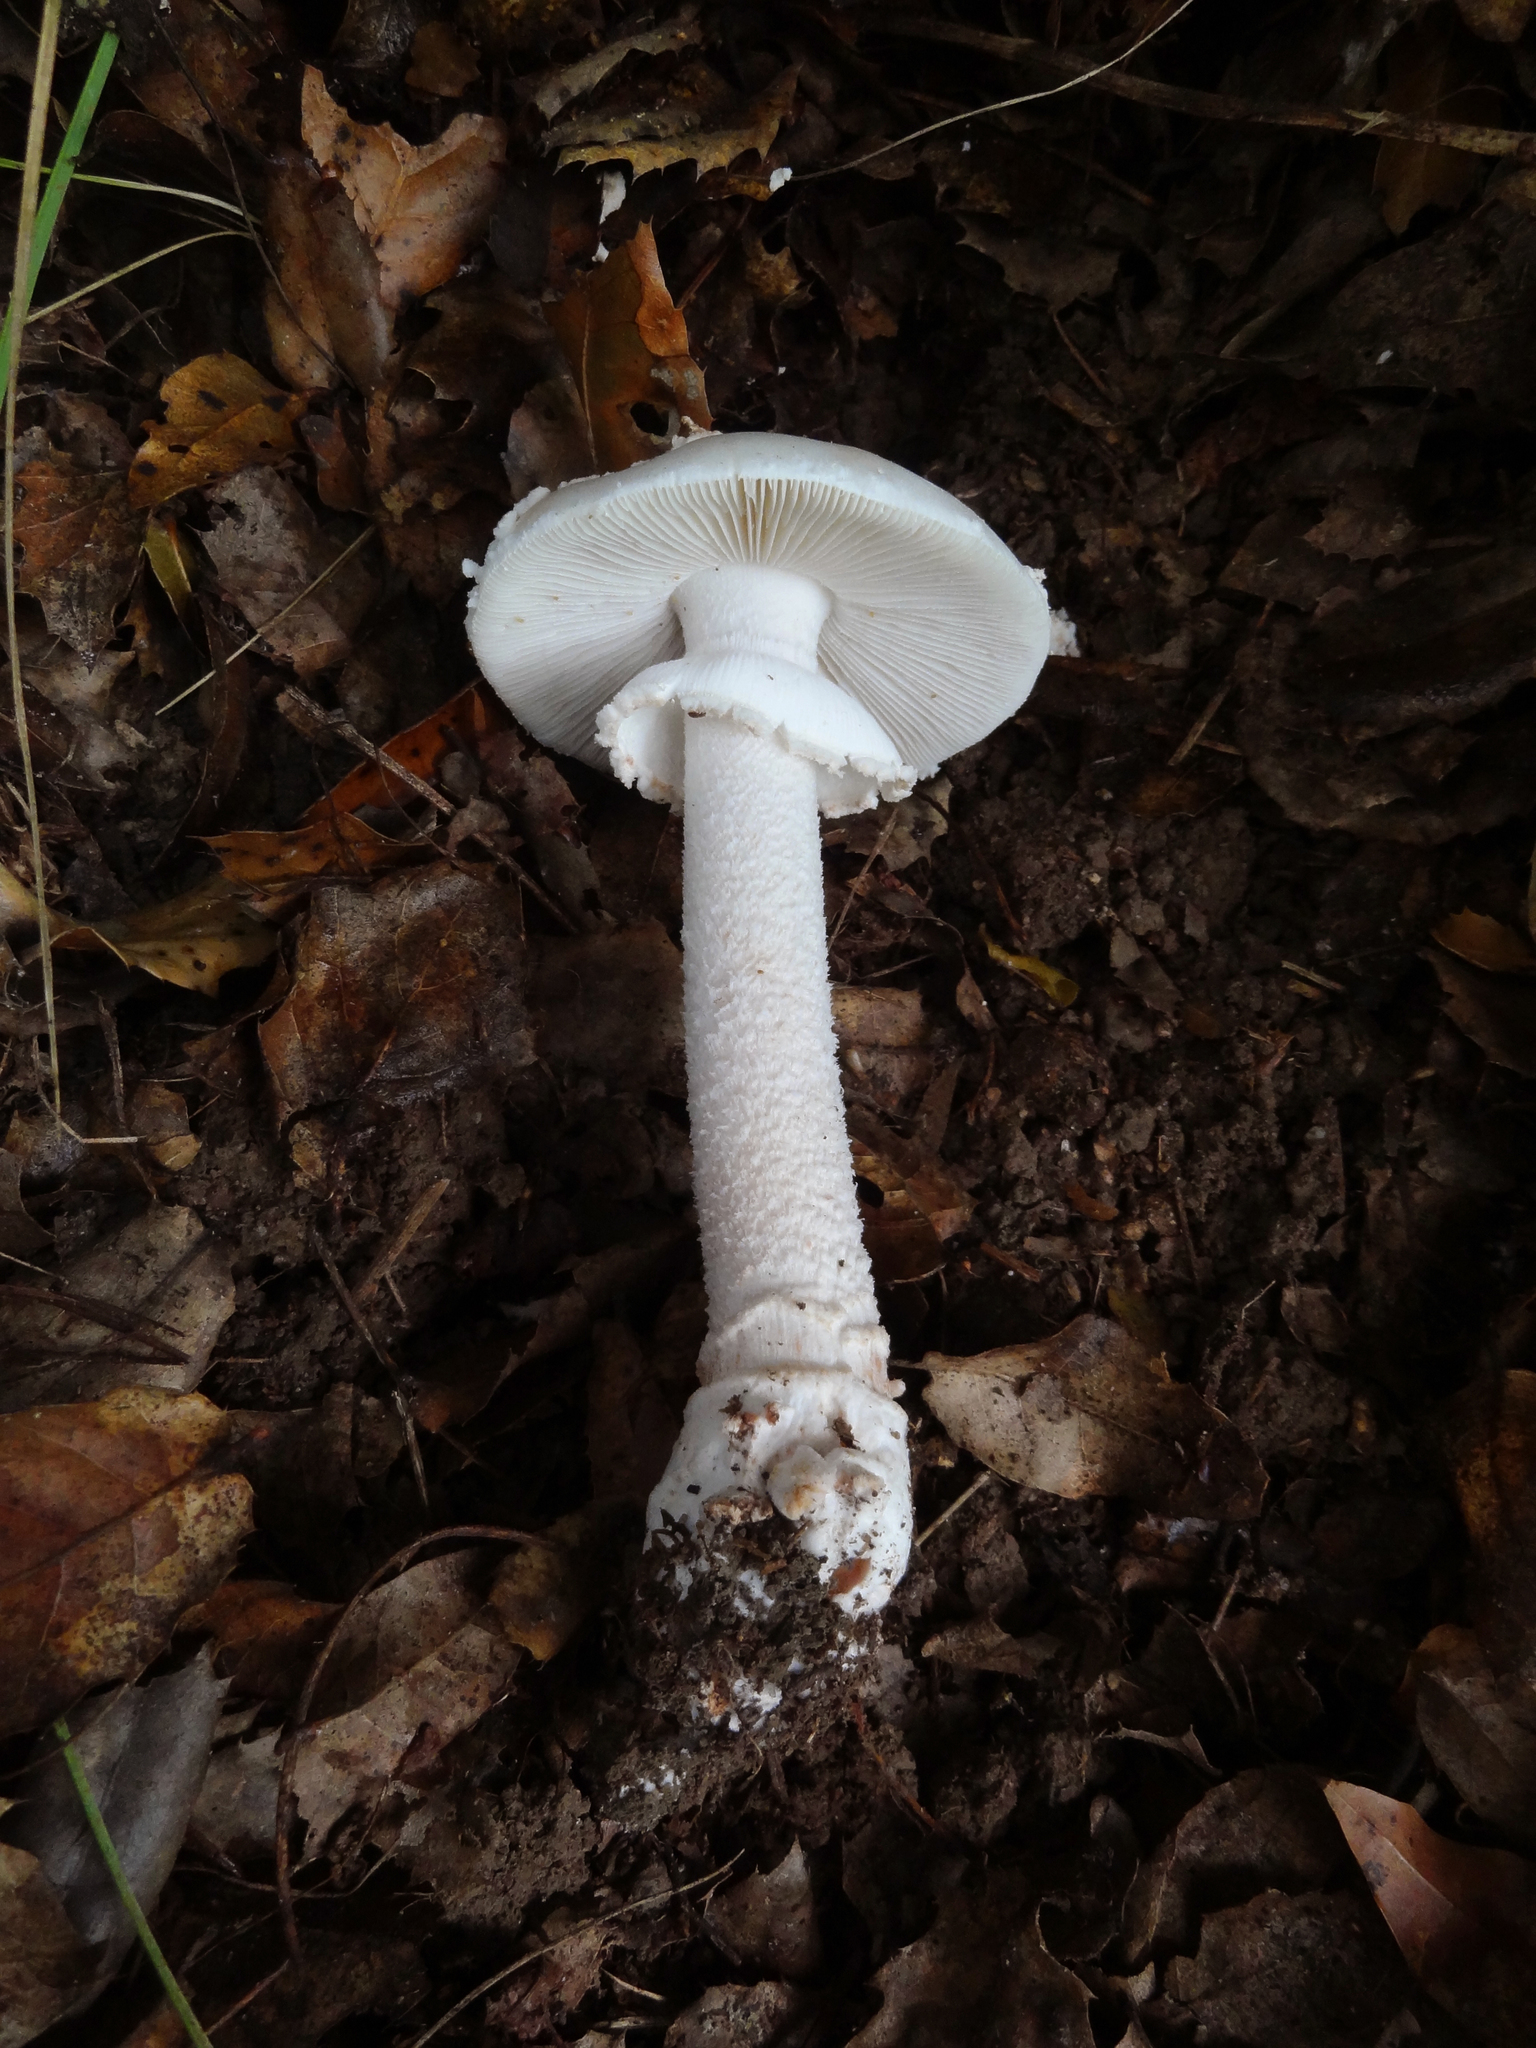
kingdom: Fungi
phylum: Basidiomycota
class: Agaricomycetes
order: Agaricales
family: Amanitaceae
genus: Amanita
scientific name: Amanita novinupta
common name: Blushing bride
